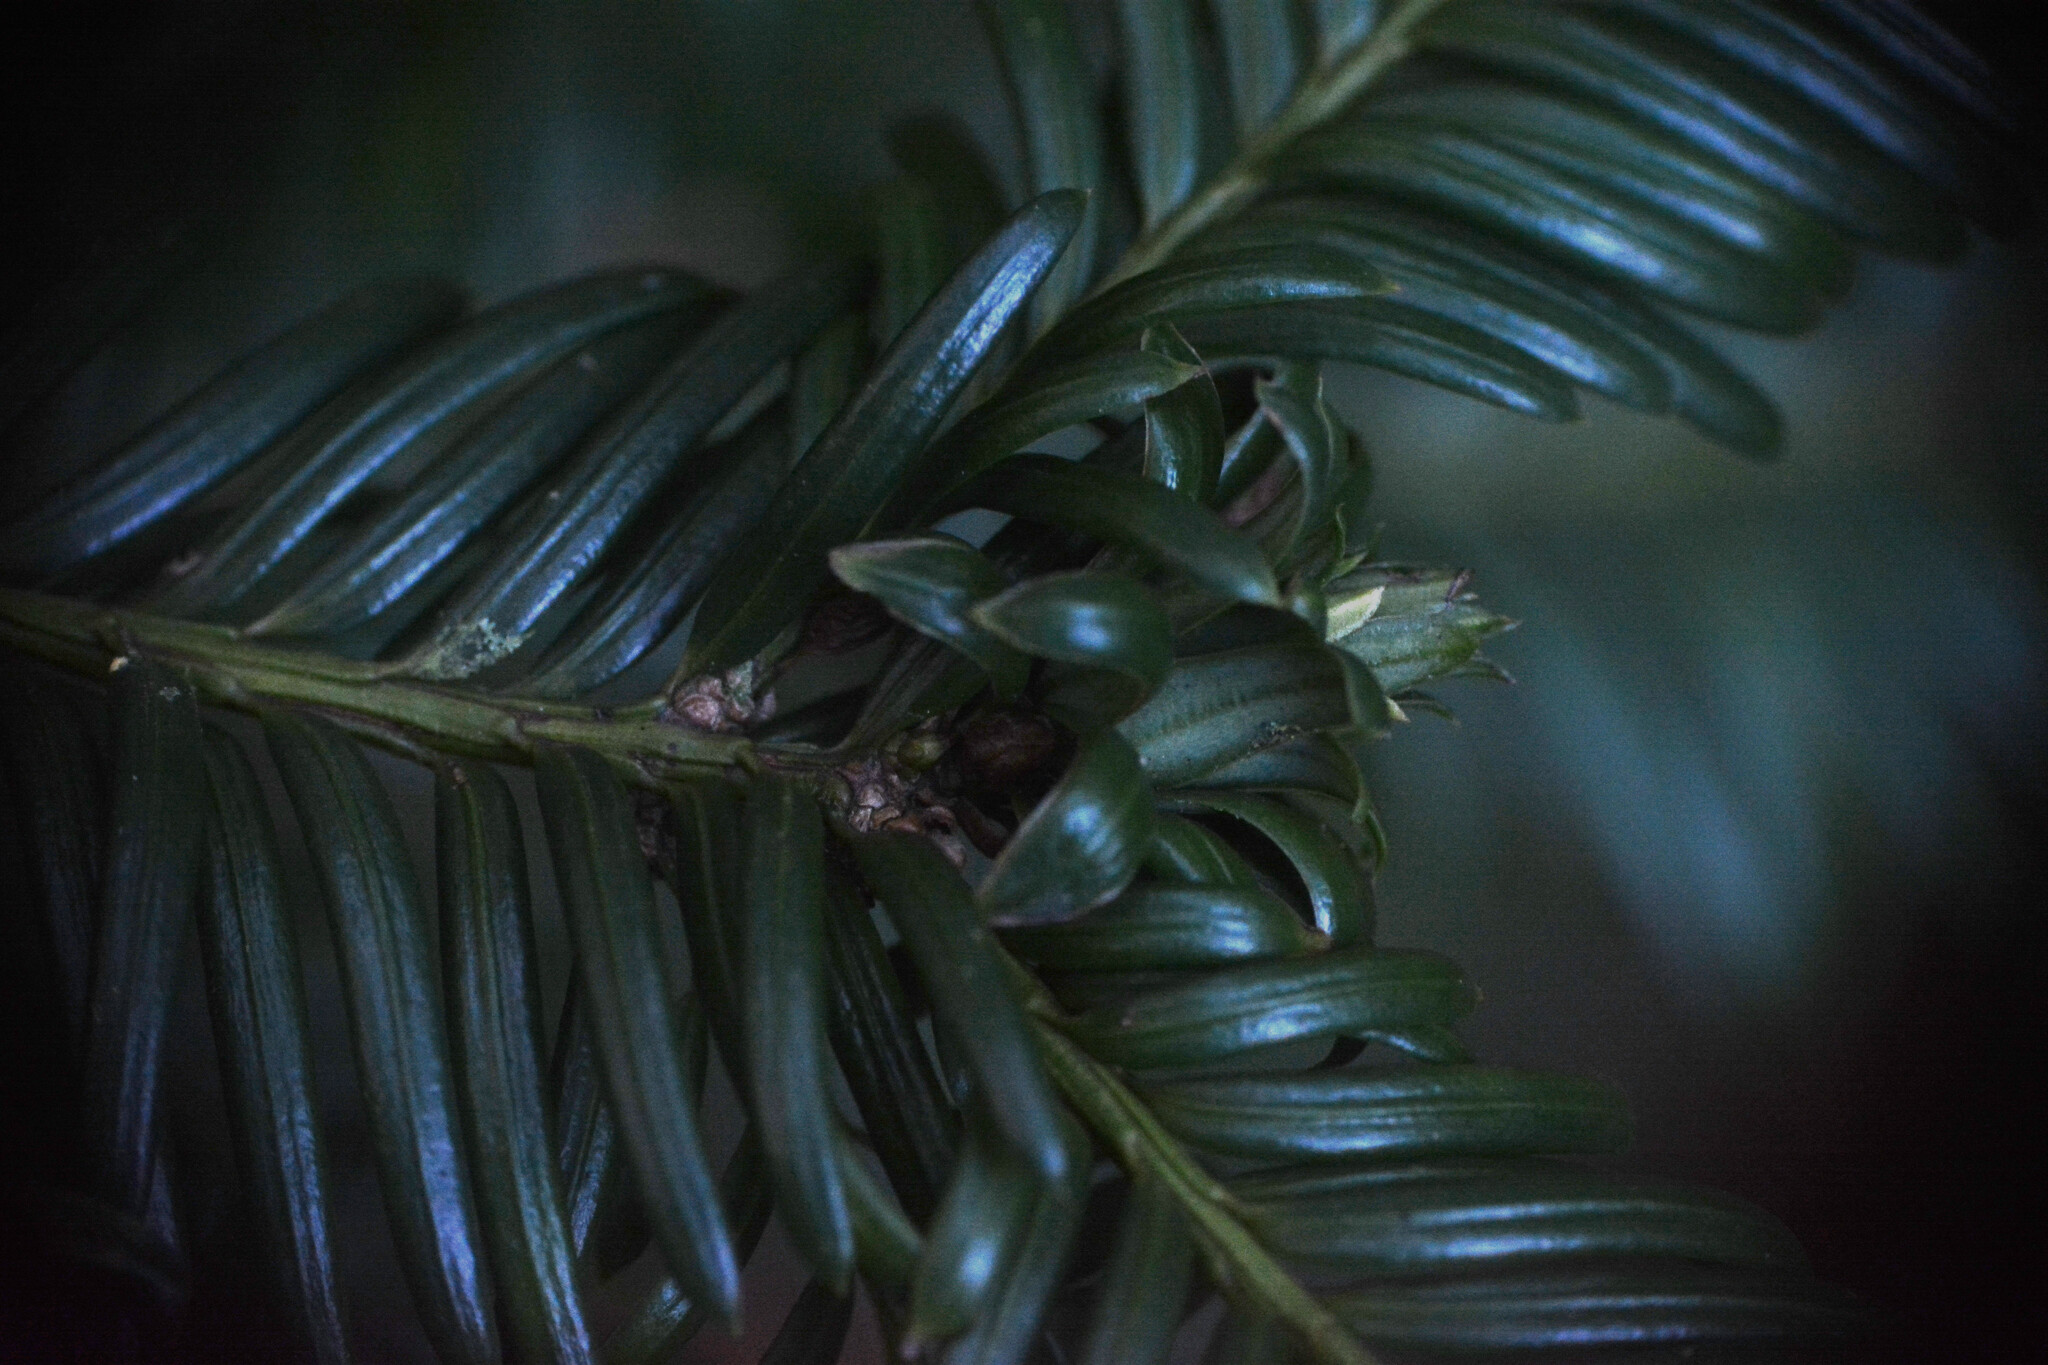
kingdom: Animalia
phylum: Arthropoda
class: Insecta
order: Diptera
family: Cecidomyiidae
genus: Taxomyia
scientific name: Taxomyia taxi
